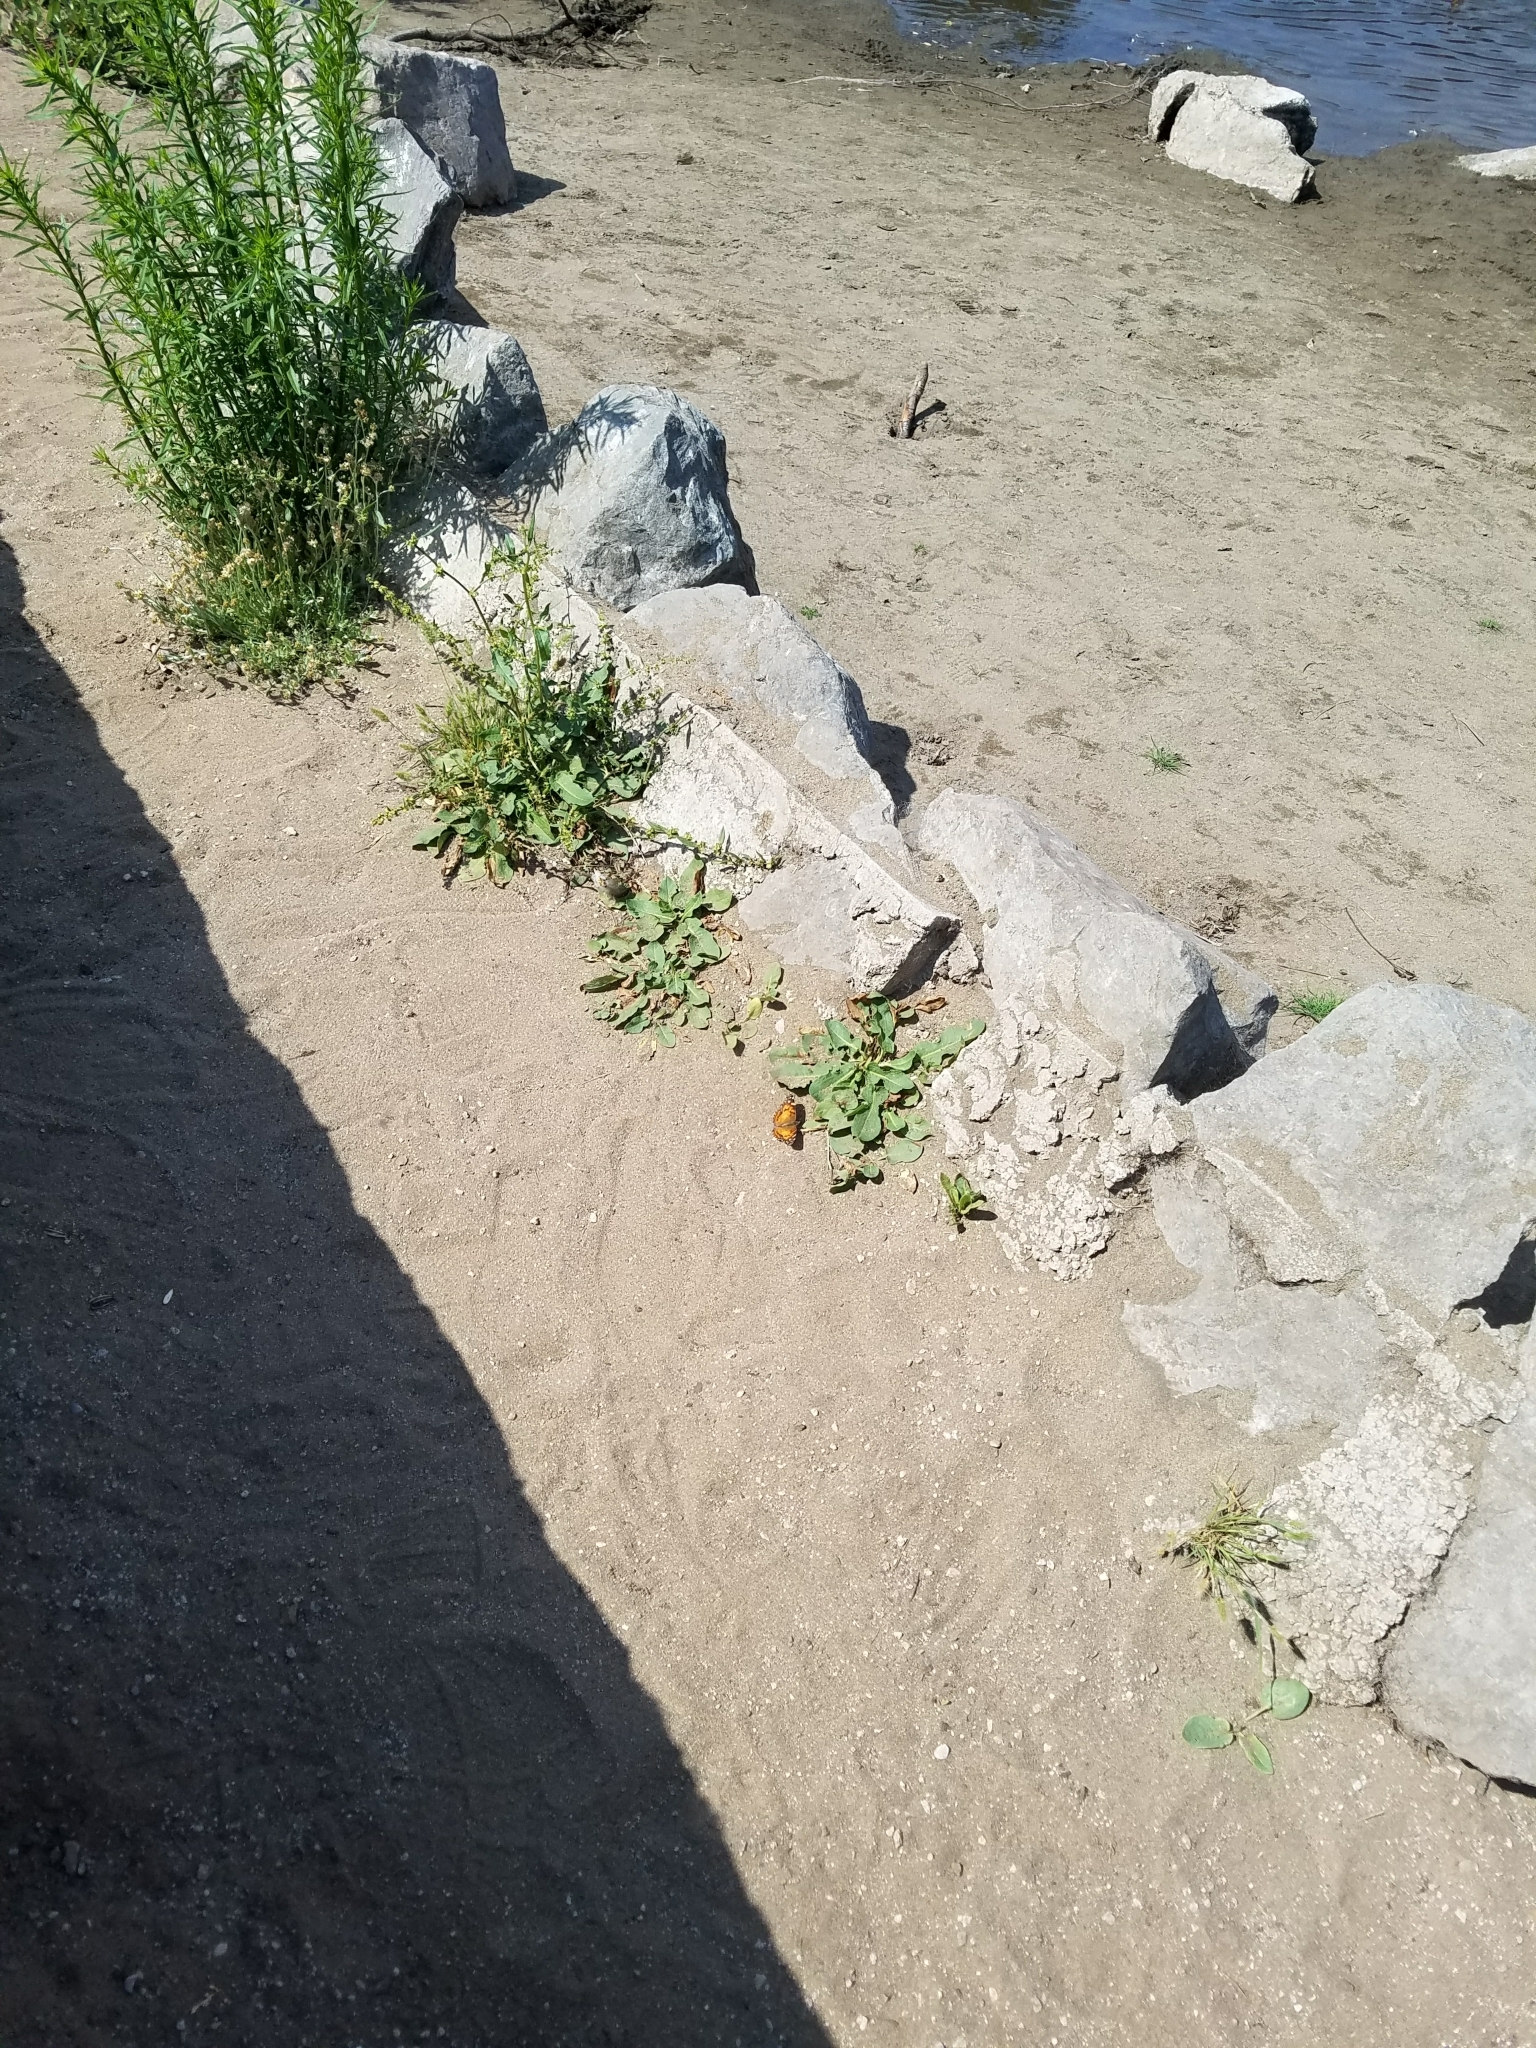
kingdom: Animalia
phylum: Arthropoda
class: Insecta
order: Lepidoptera
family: Nymphalidae
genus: Vanessa
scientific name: Vanessa virginiensis
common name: American lady
